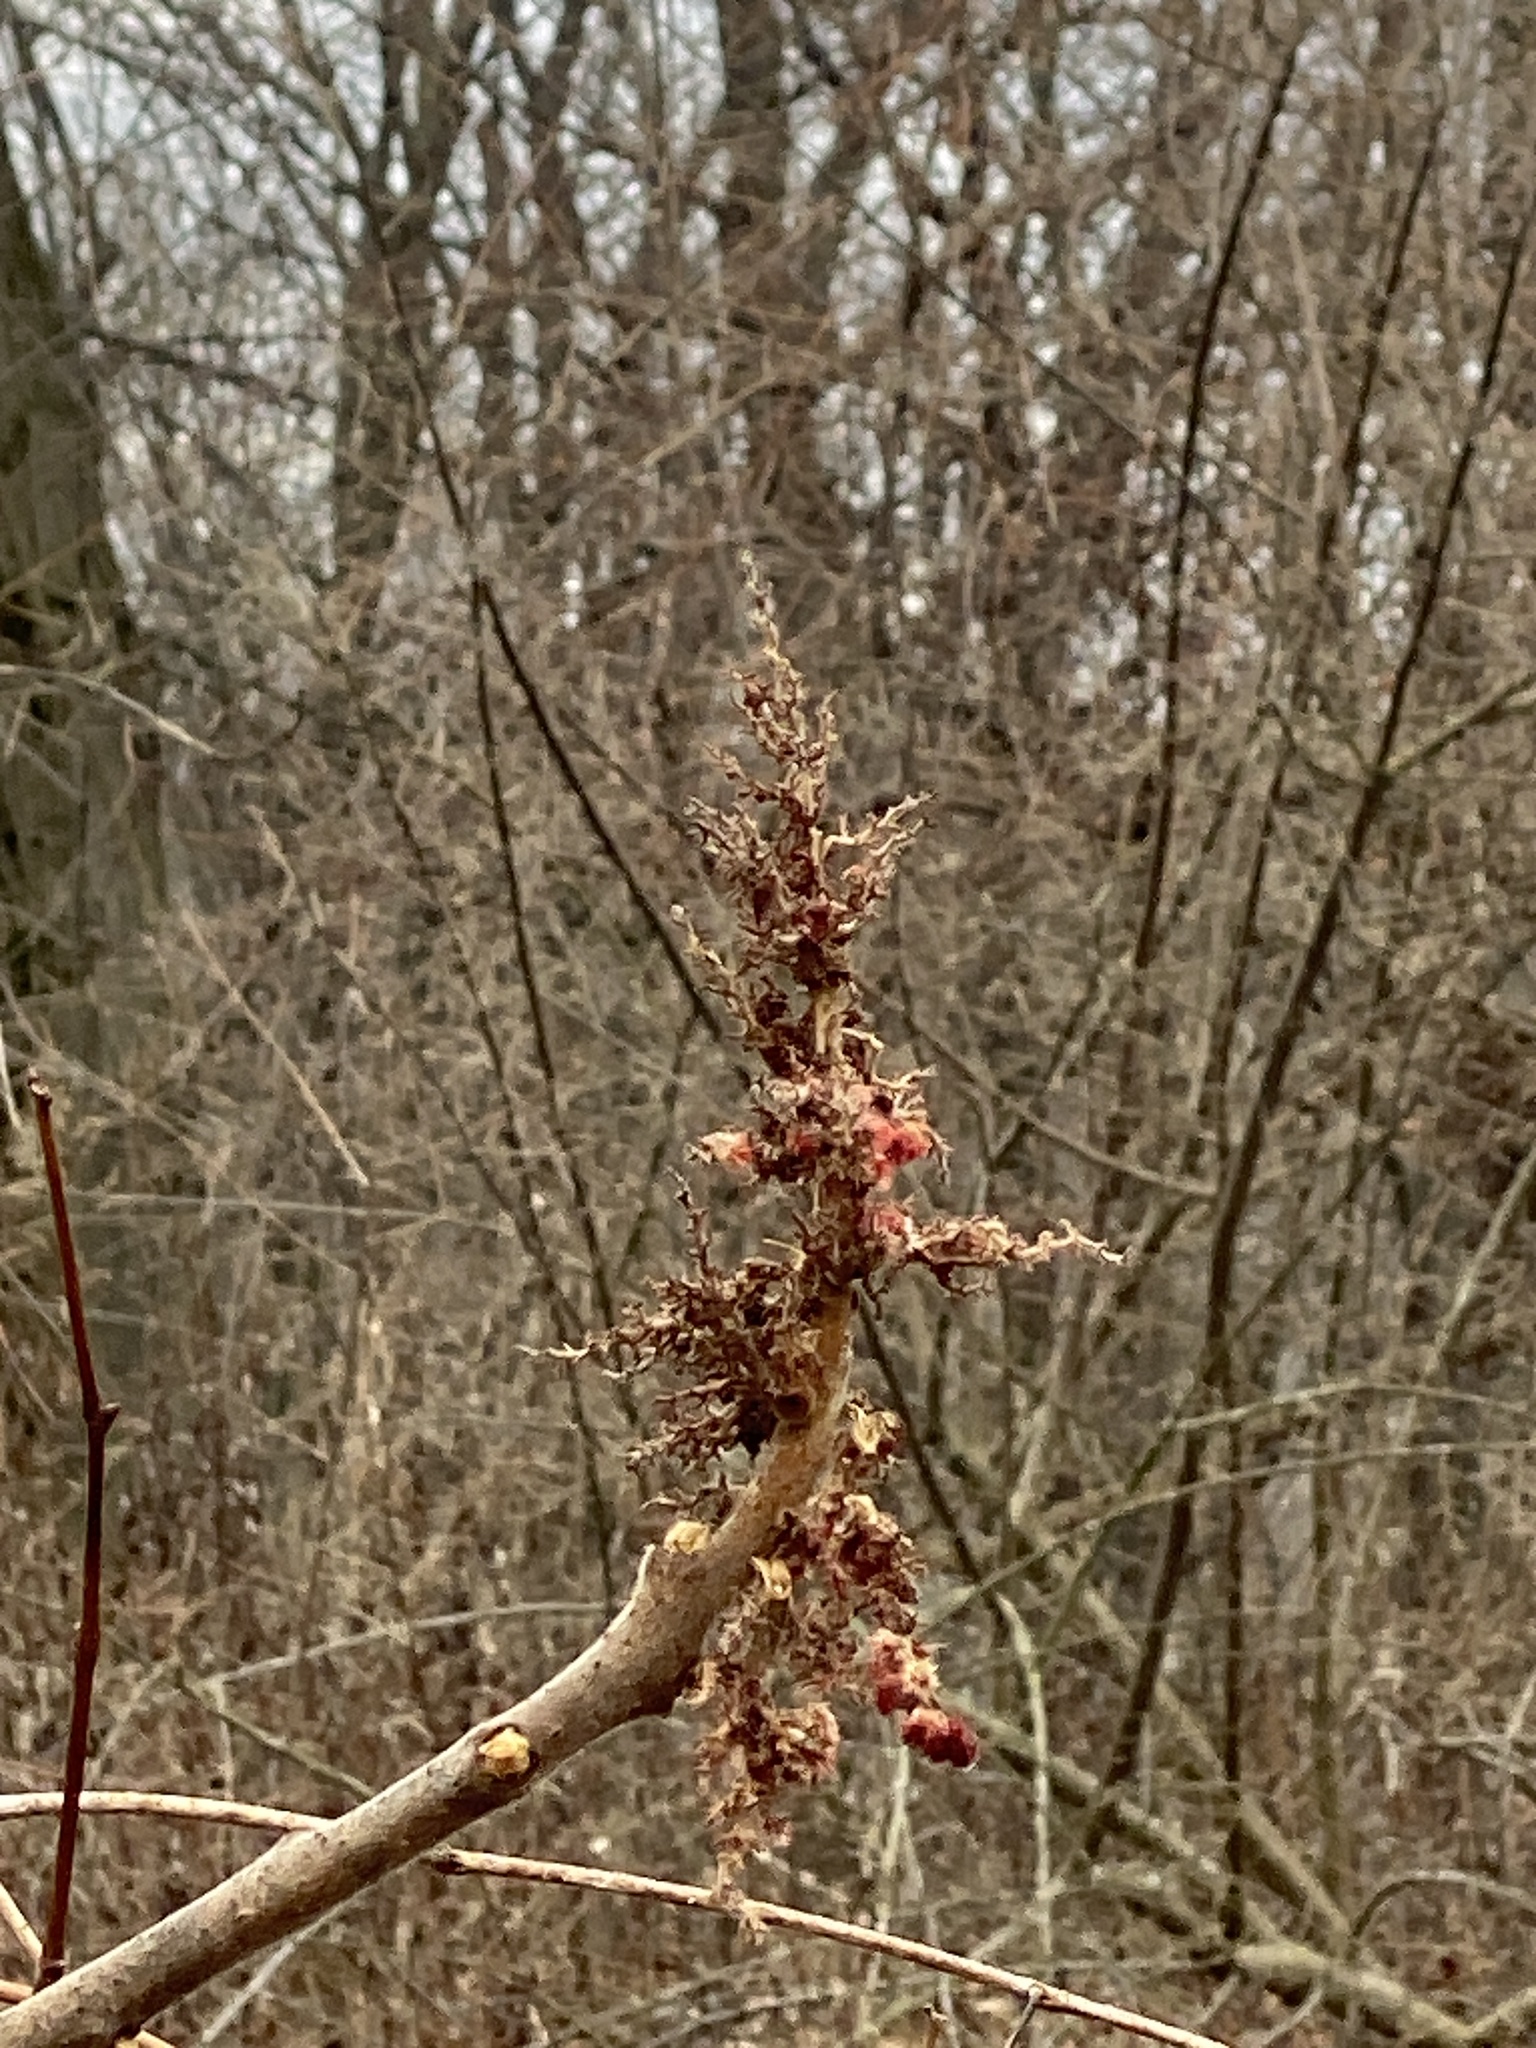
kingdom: Plantae
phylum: Tracheophyta
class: Magnoliopsida
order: Sapindales
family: Anacardiaceae
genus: Rhus
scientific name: Rhus typhina
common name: Staghorn sumac
